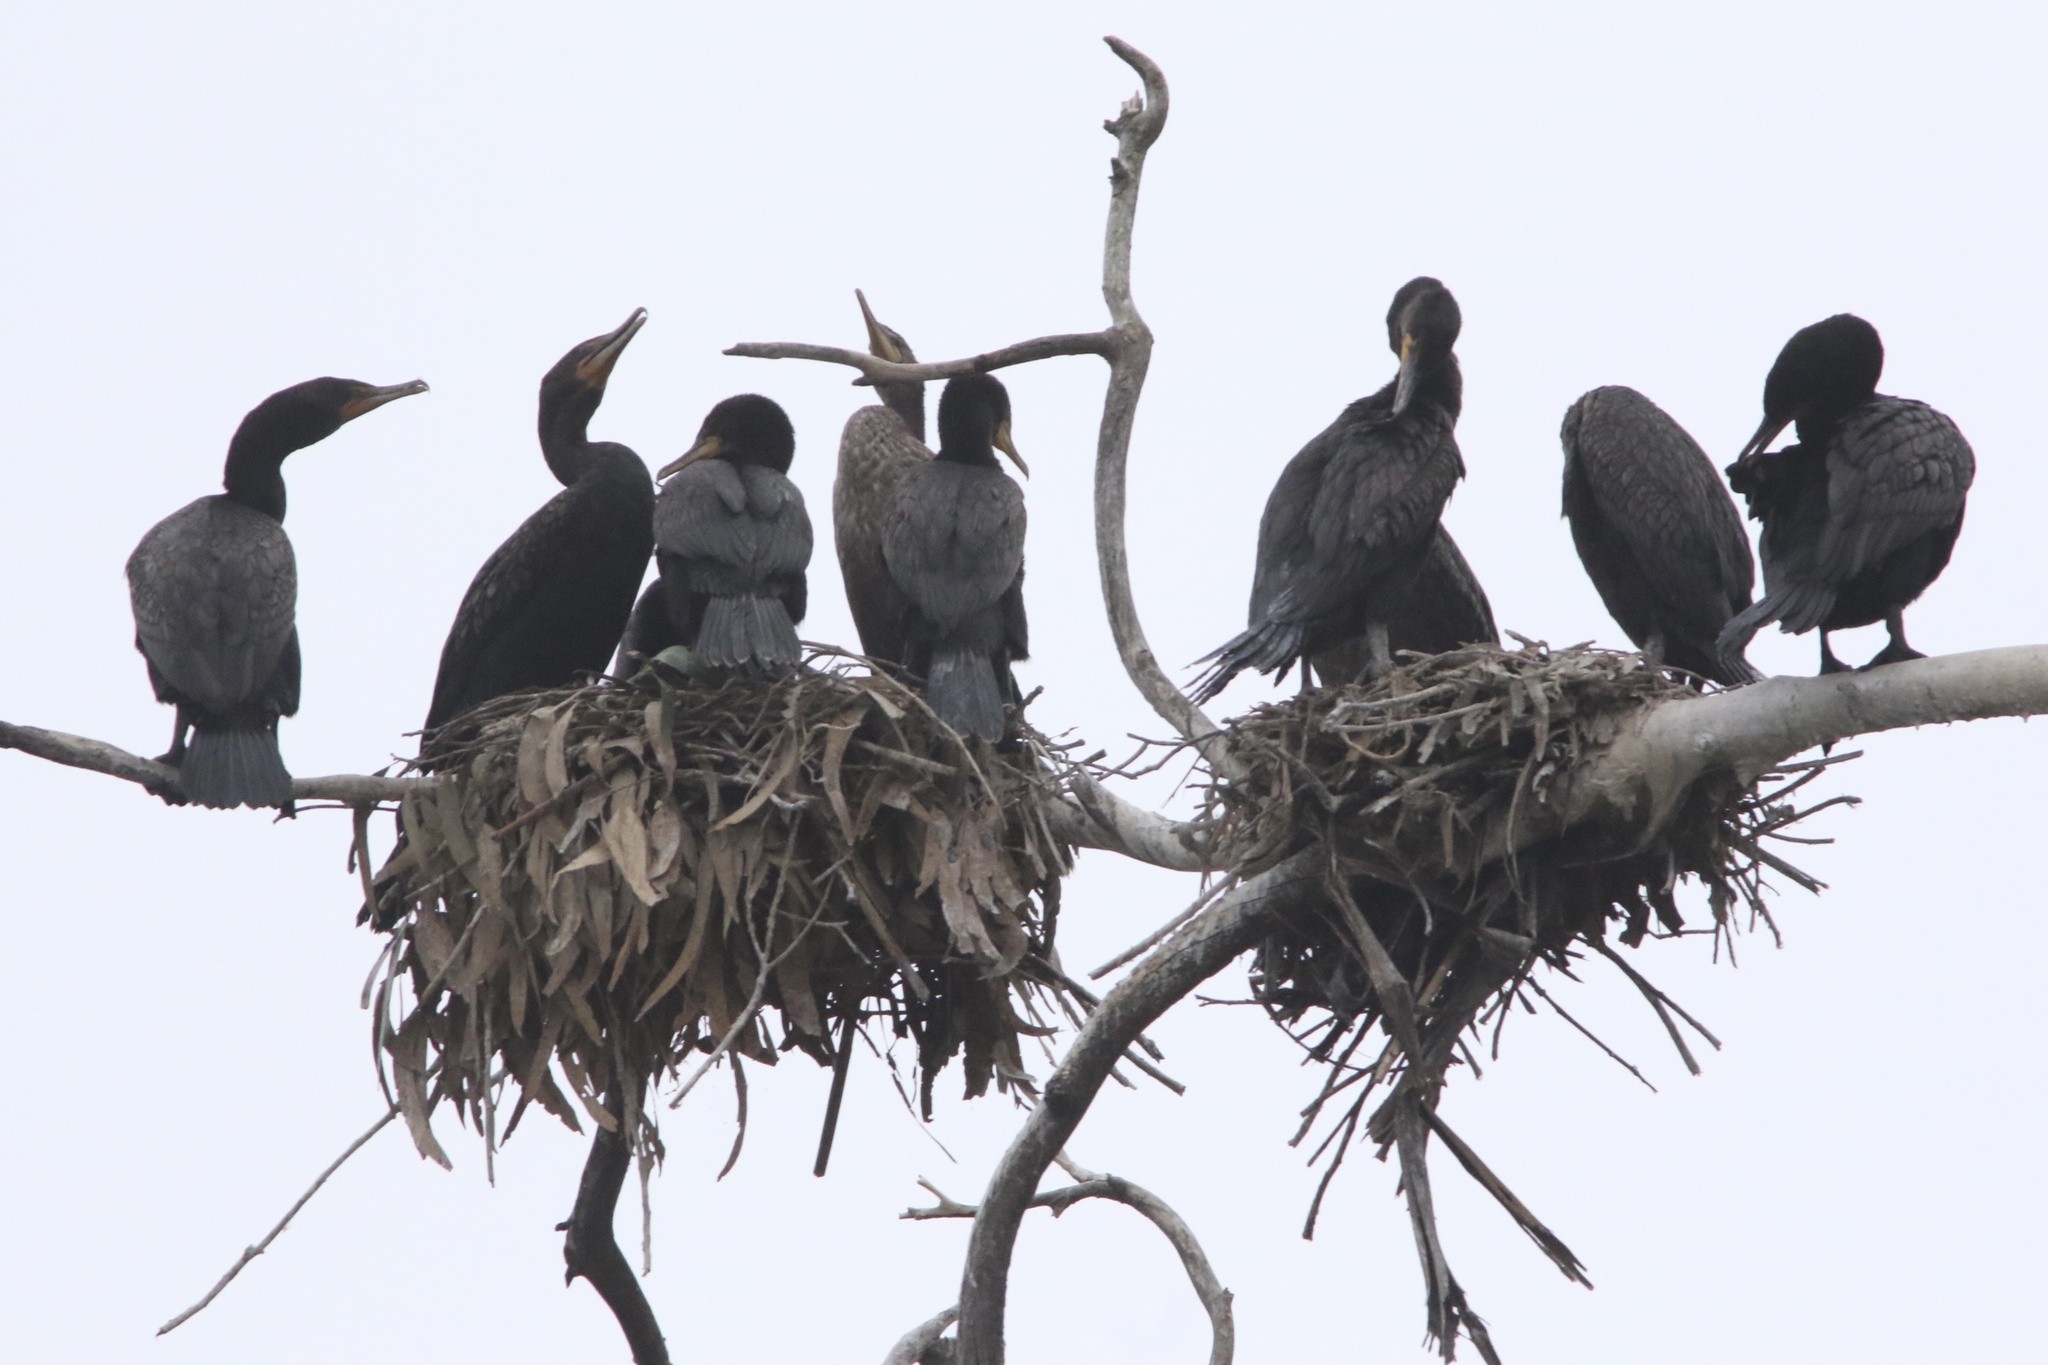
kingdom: Animalia
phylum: Chordata
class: Aves
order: Suliformes
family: Phalacrocoracidae
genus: Phalacrocorax
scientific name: Phalacrocorax auritus
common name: Double-crested cormorant
